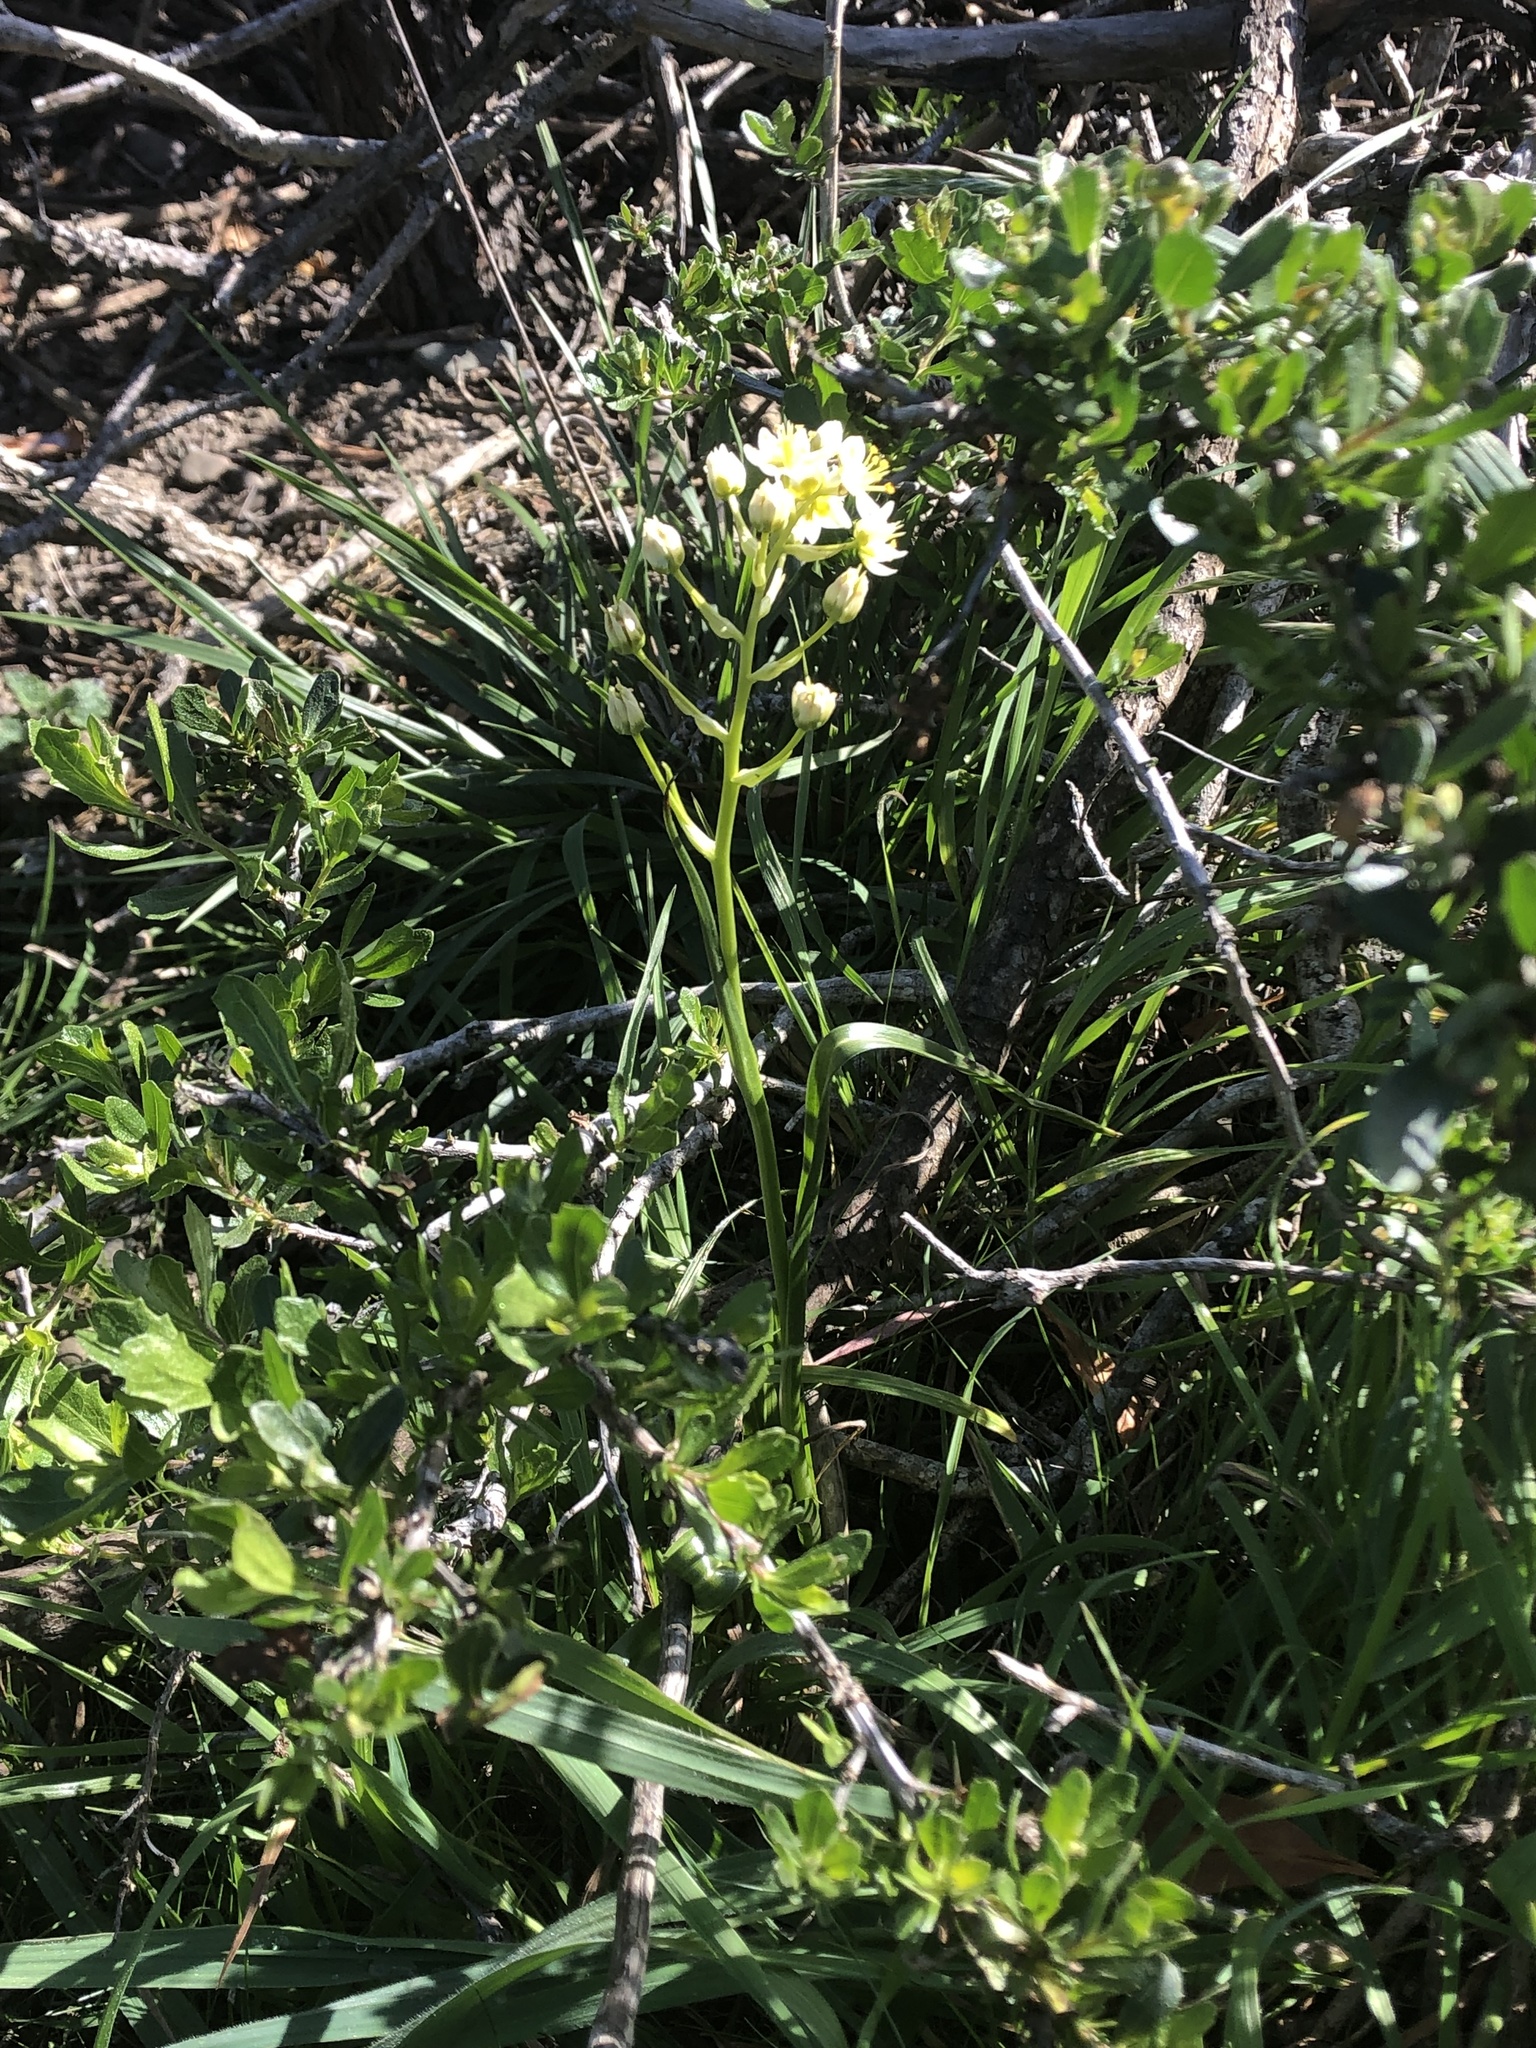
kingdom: Plantae
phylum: Tracheophyta
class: Liliopsida
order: Liliales
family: Melanthiaceae
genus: Toxicoscordion
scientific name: Toxicoscordion fremontii
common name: Fremont's death camas
